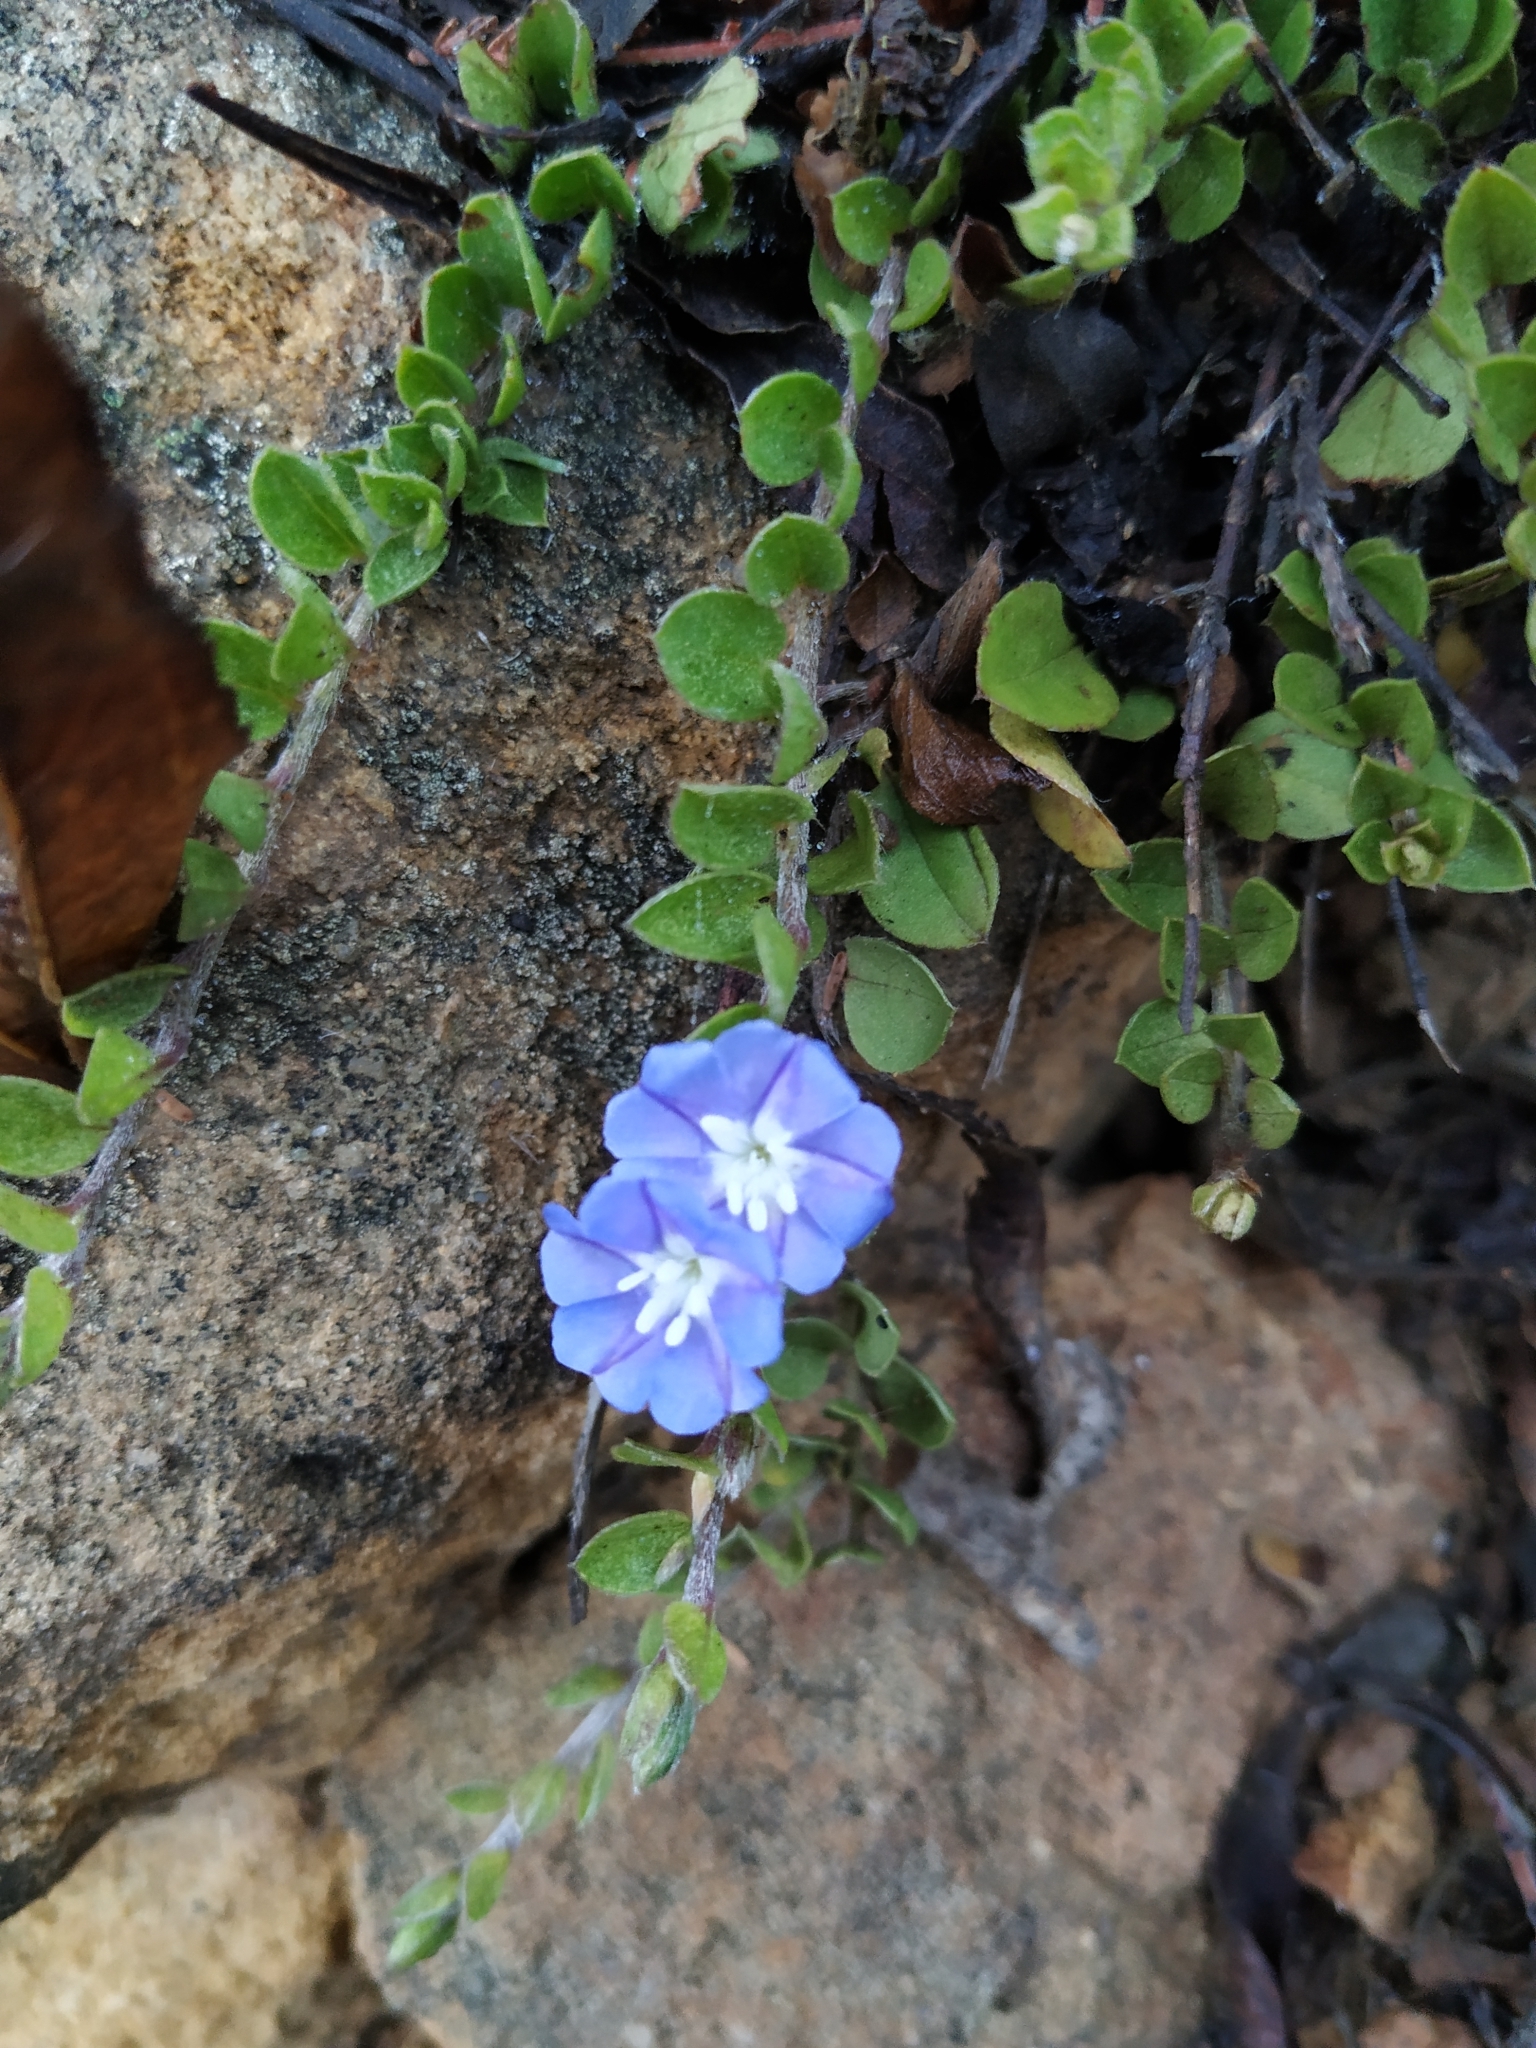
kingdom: Plantae
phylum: Tracheophyta
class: Magnoliopsida
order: Solanales
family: Convolvulaceae
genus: Evolvulus
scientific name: Evolvulus bogotensis
